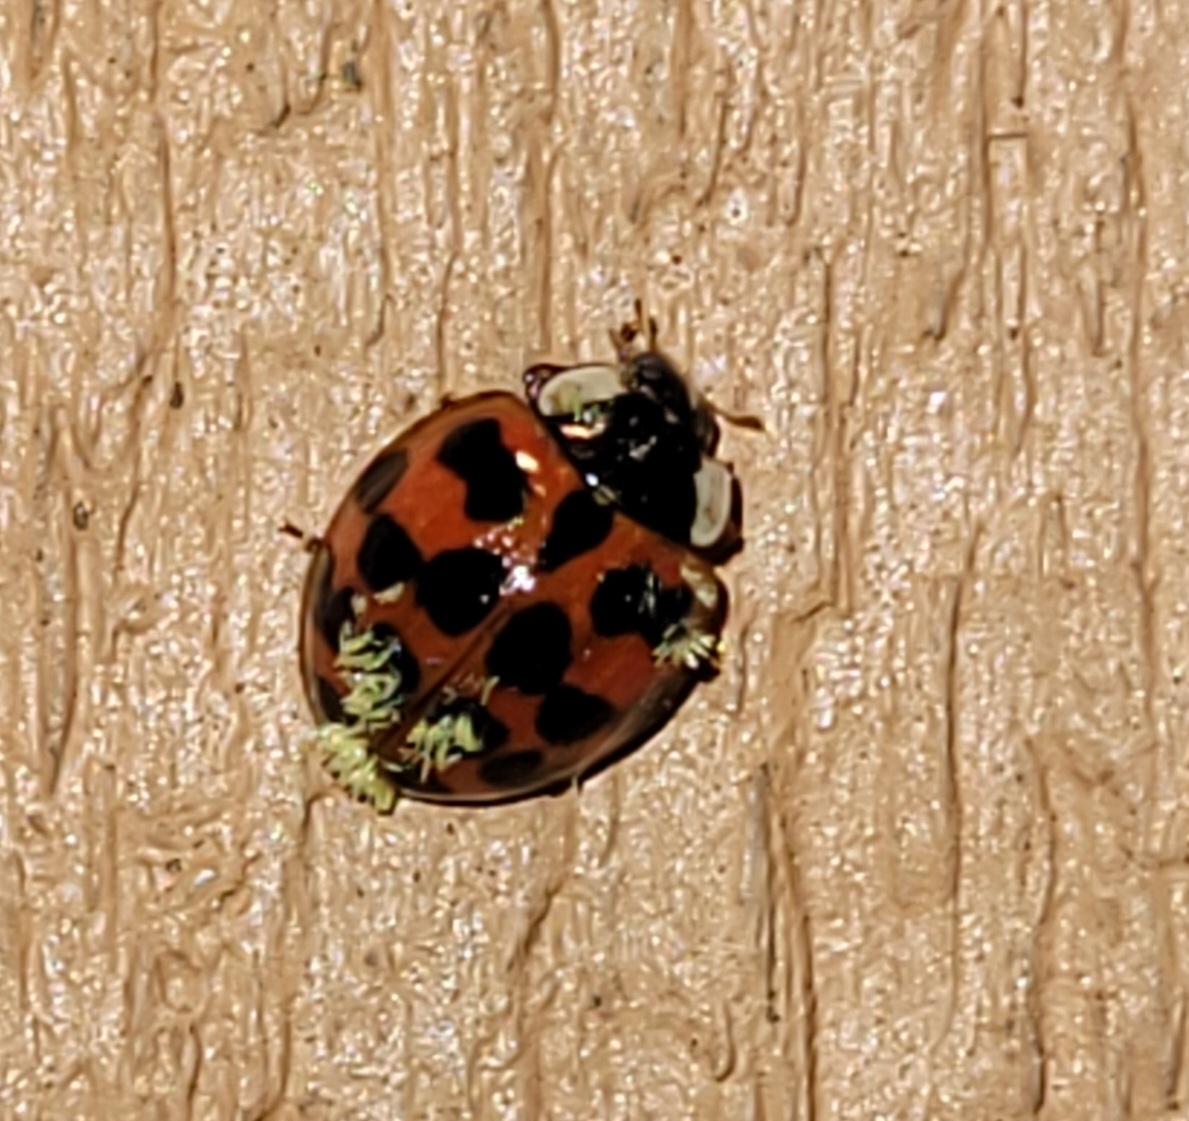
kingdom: Fungi
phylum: Ascomycota
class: Laboulbeniomycetes
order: Laboulbeniales
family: Laboulbeniaceae
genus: Hesperomyces
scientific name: Hesperomyces harmoniae
